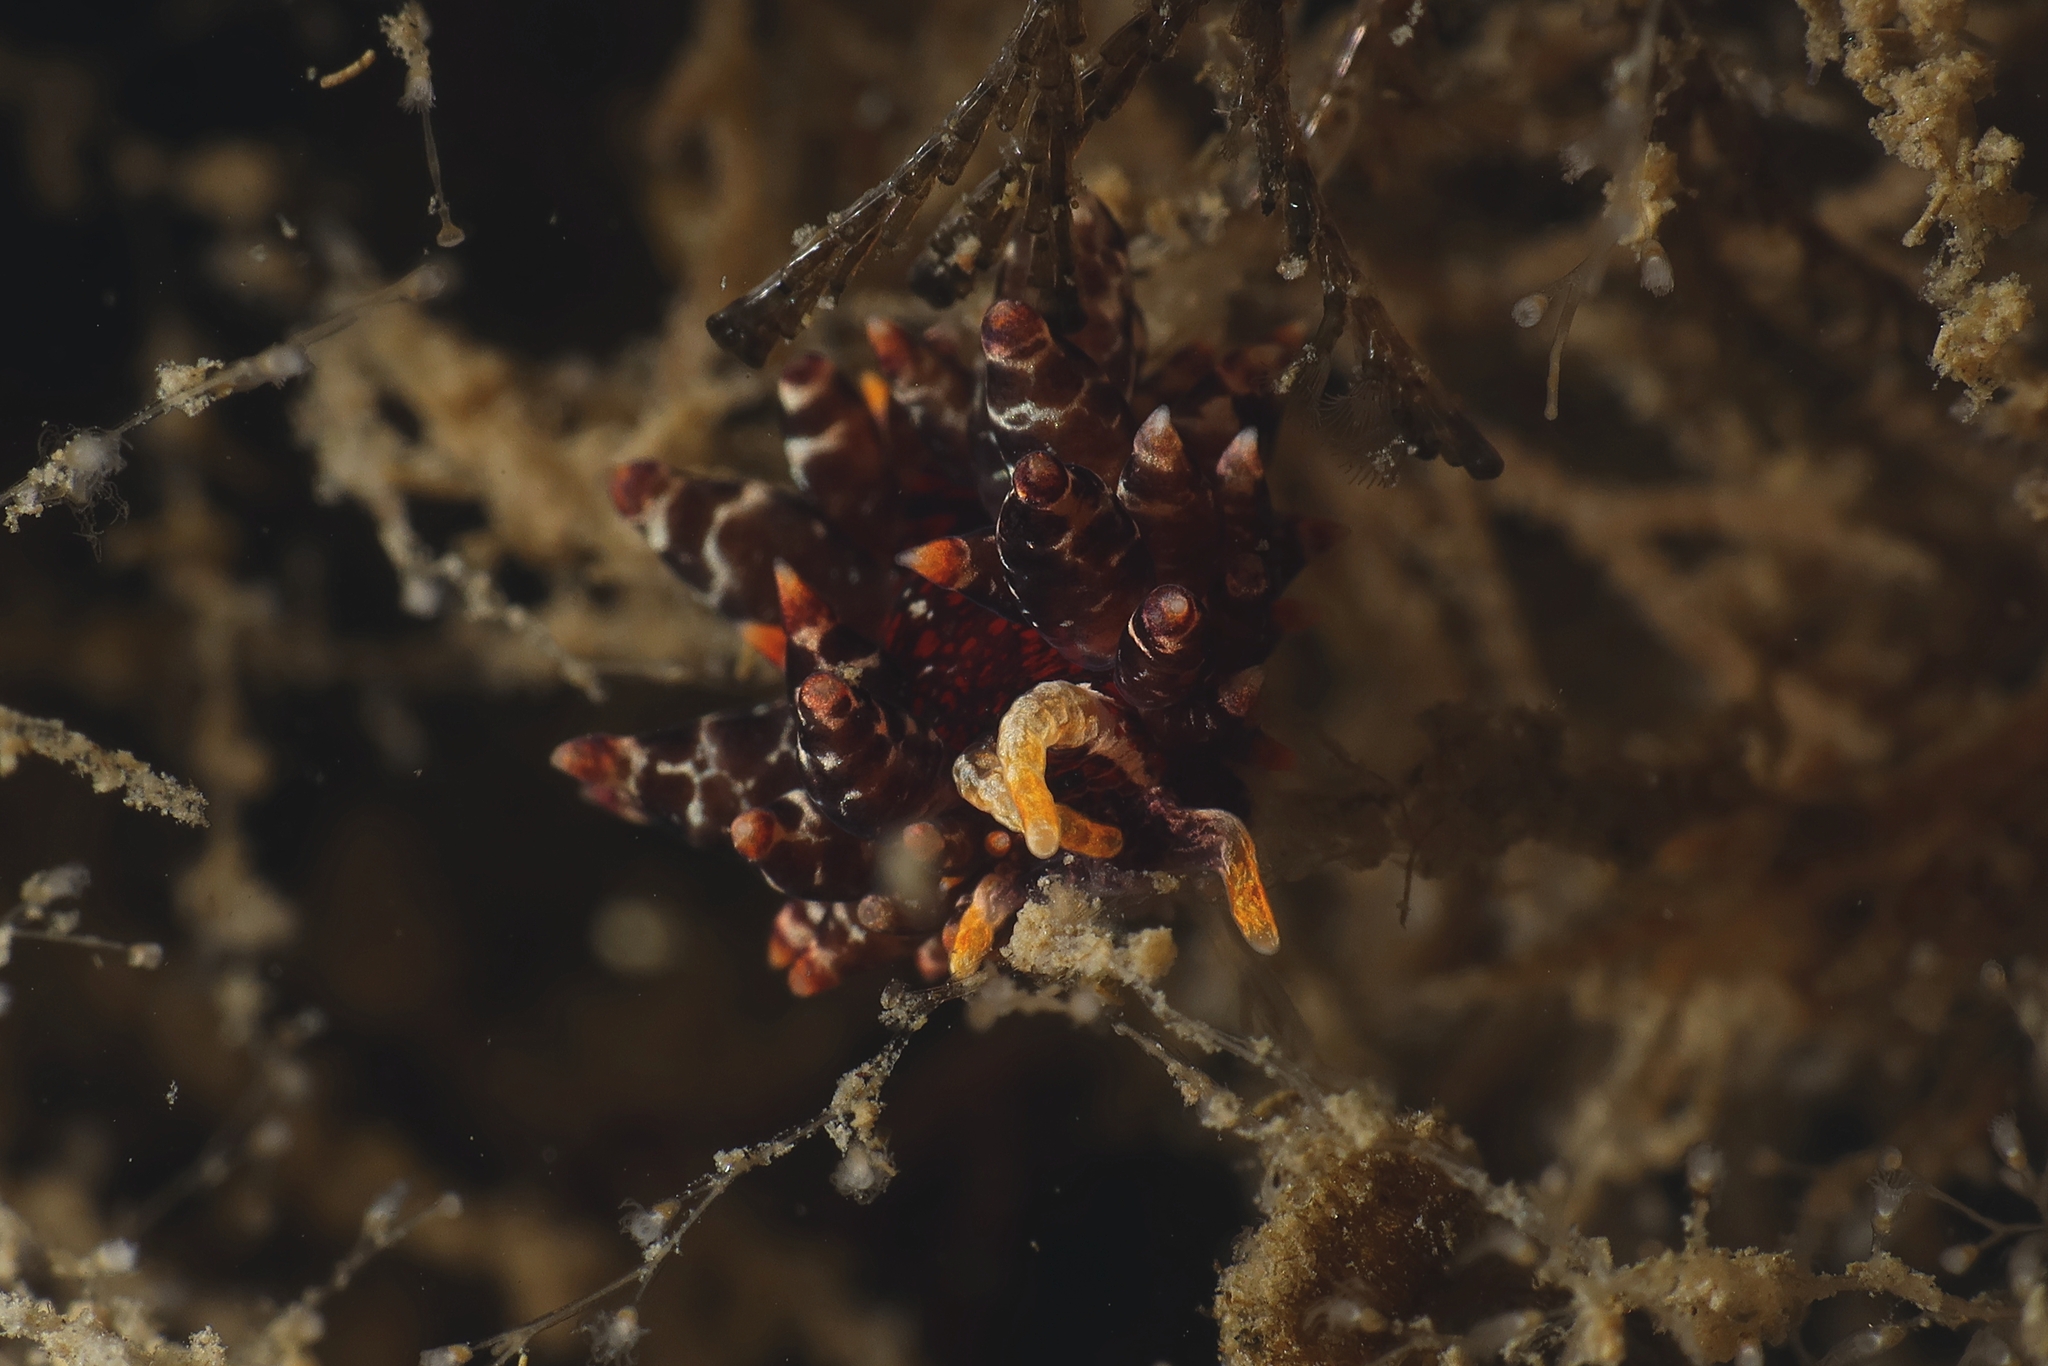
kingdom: Animalia
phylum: Mollusca
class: Gastropoda
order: Nudibranchia
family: Eubranchidae
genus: Amphorina
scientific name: Amphorina andra
